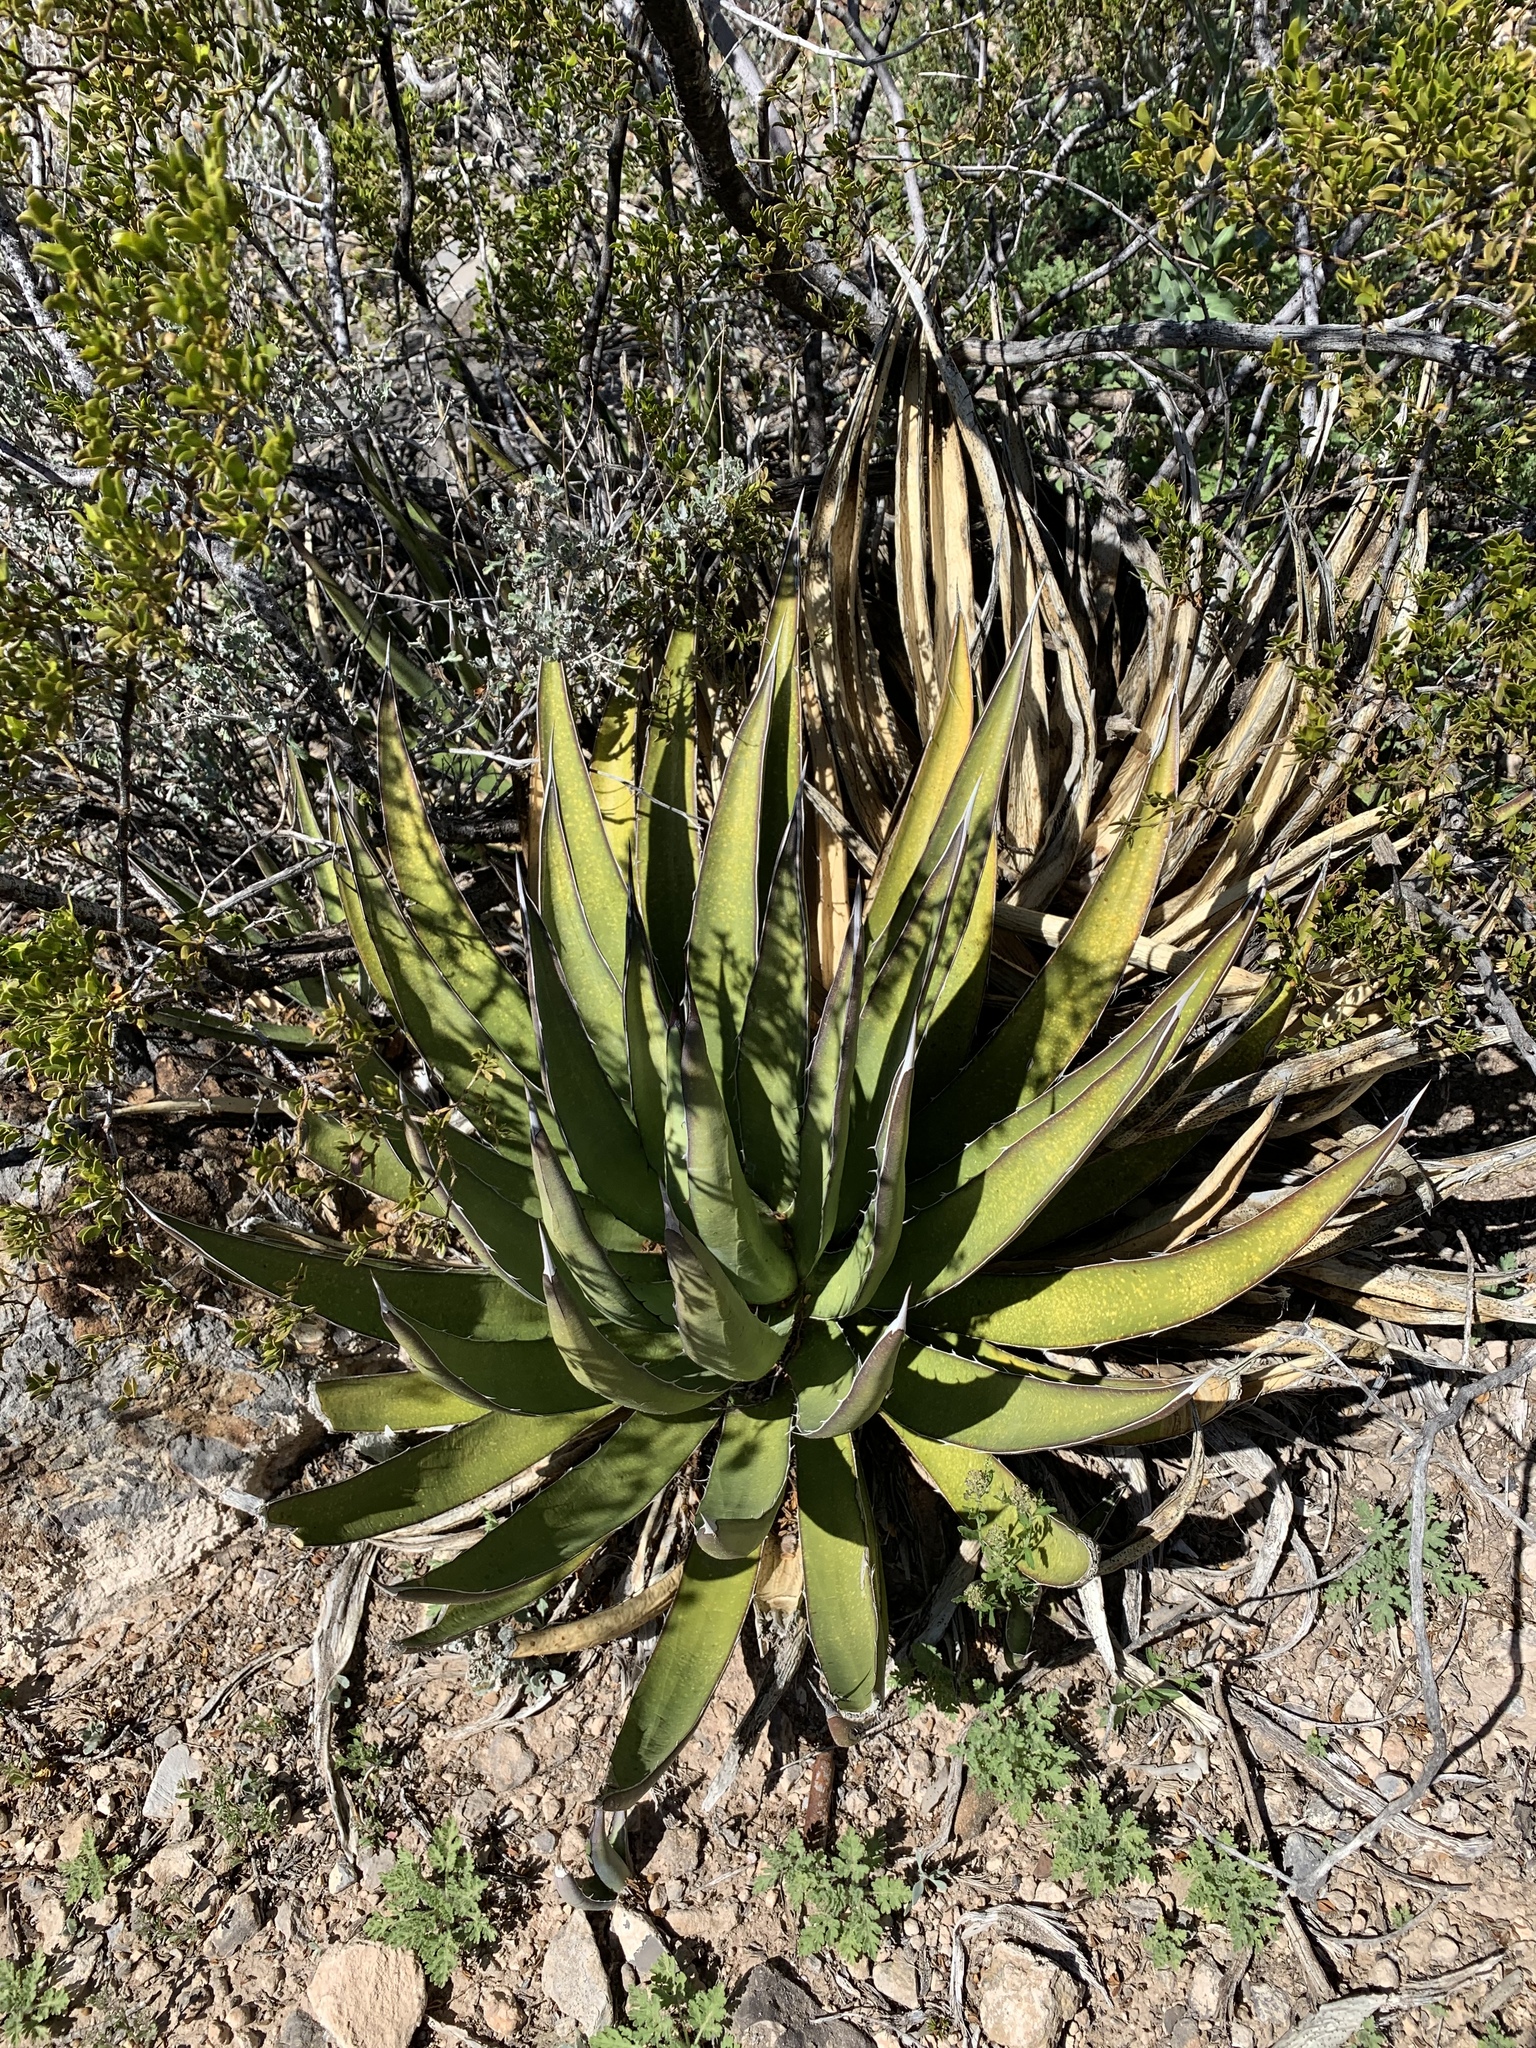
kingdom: Plantae
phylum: Tracheophyta
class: Liliopsida
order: Asparagales
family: Asparagaceae
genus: Agave
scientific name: Agave lechuguilla
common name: Lecheguilla agave
